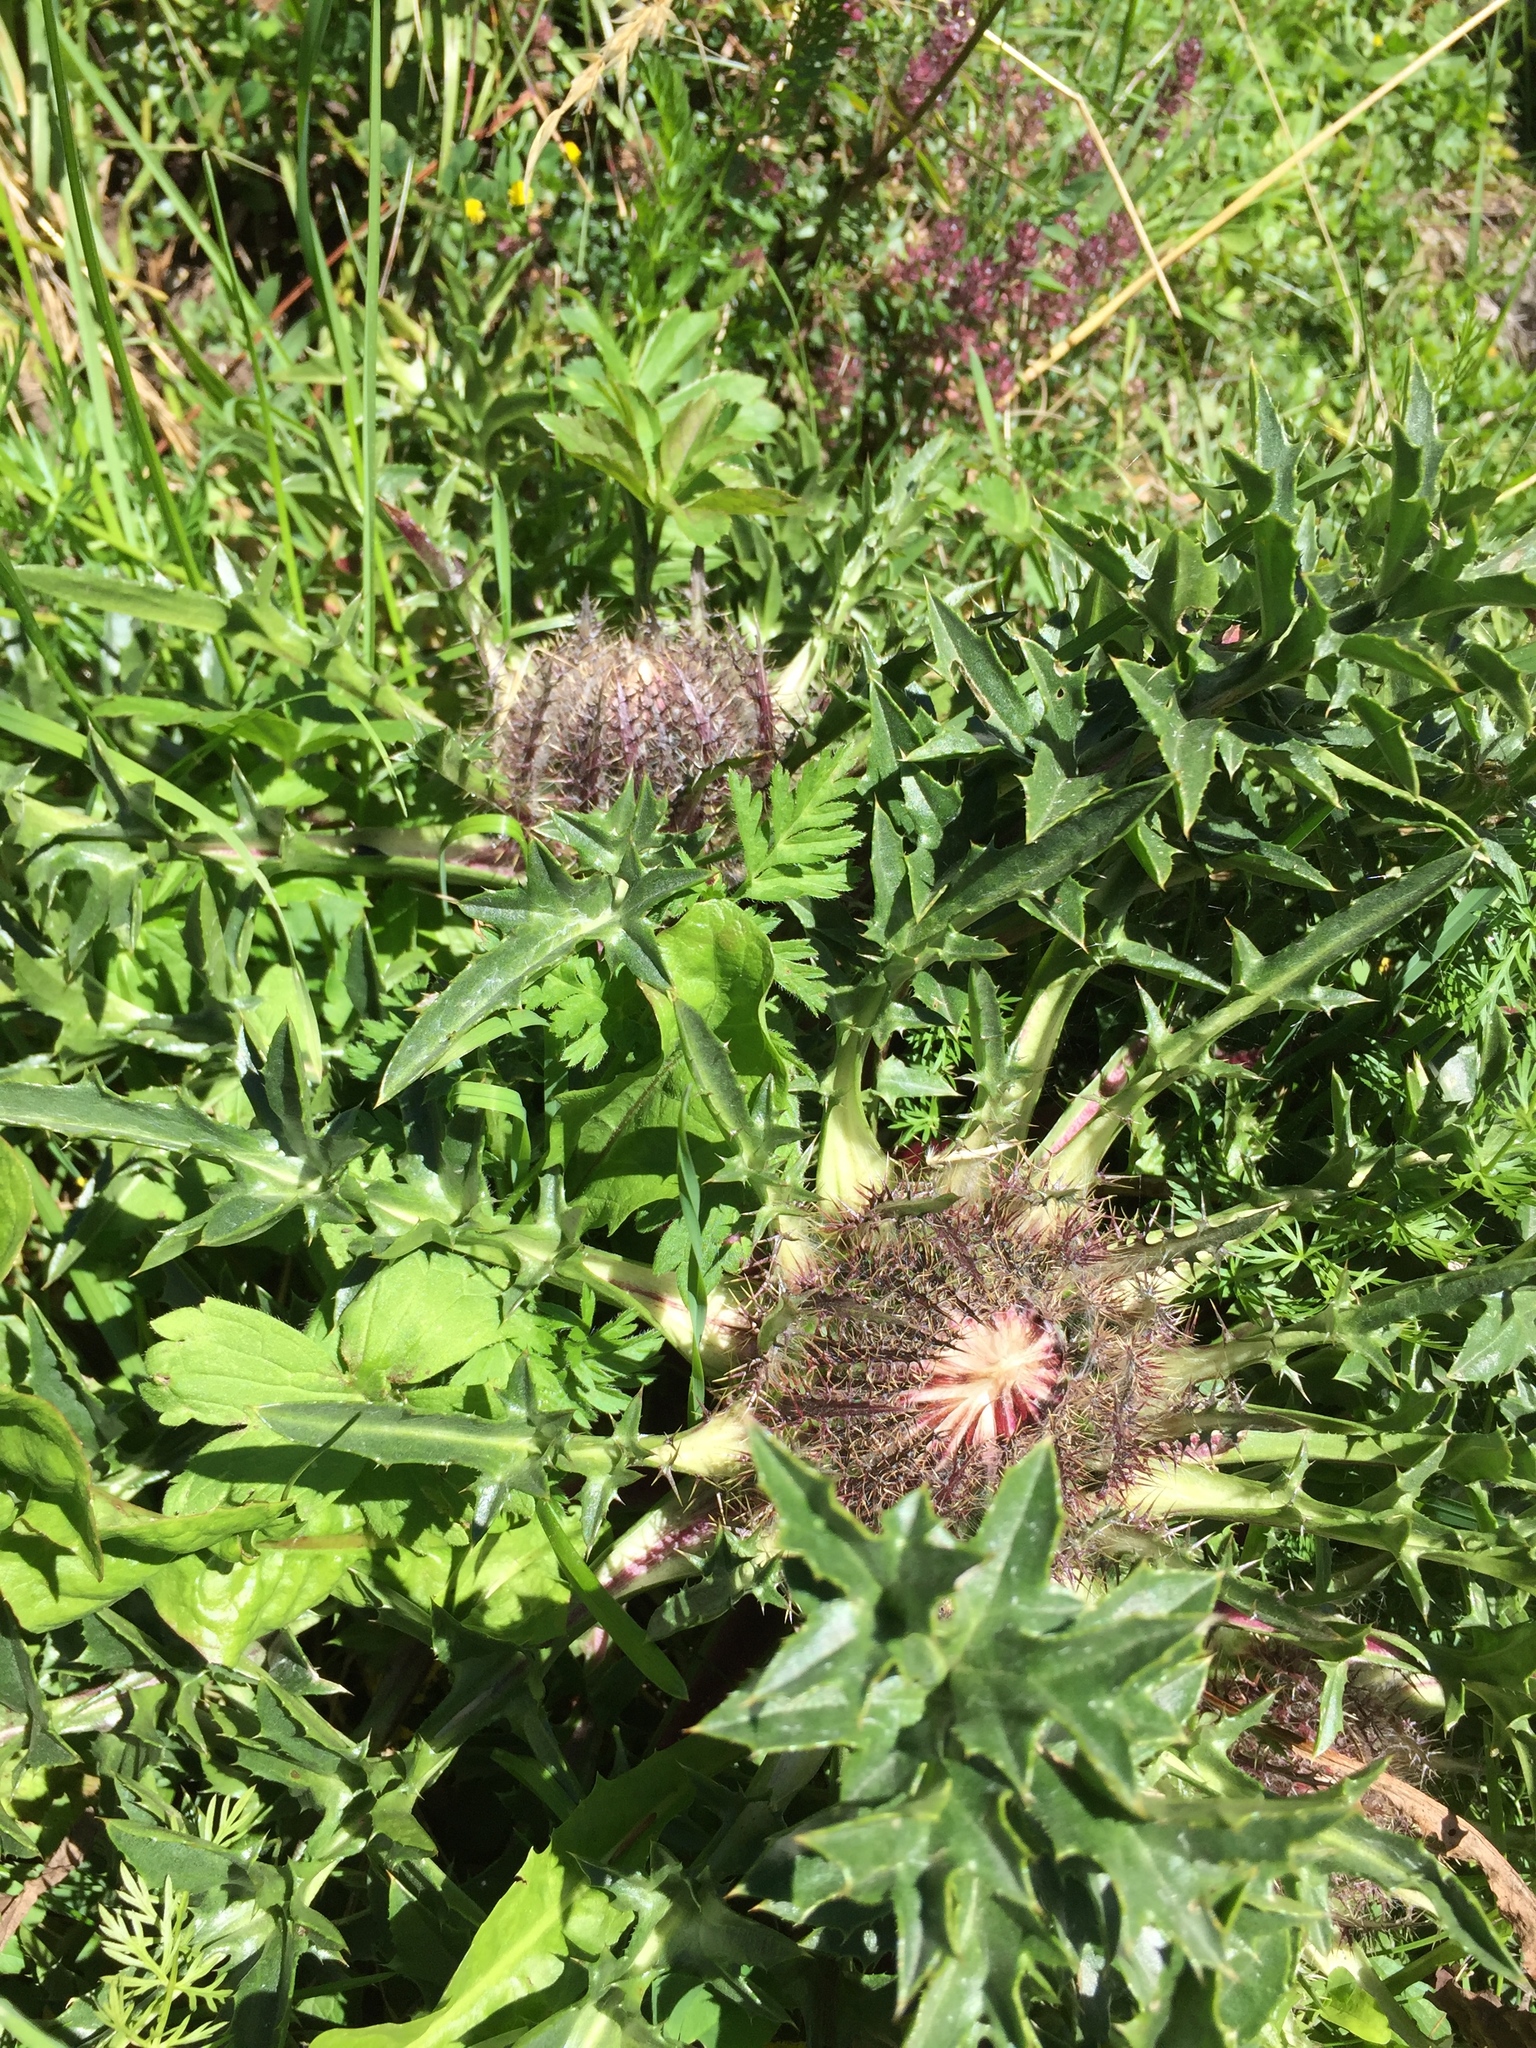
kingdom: Plantae
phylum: Tracheophyta
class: Magnoliopsida
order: Asterales
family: Asteraceae
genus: Carlina
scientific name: Carlina acaulis
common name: Stemless carline thistle
